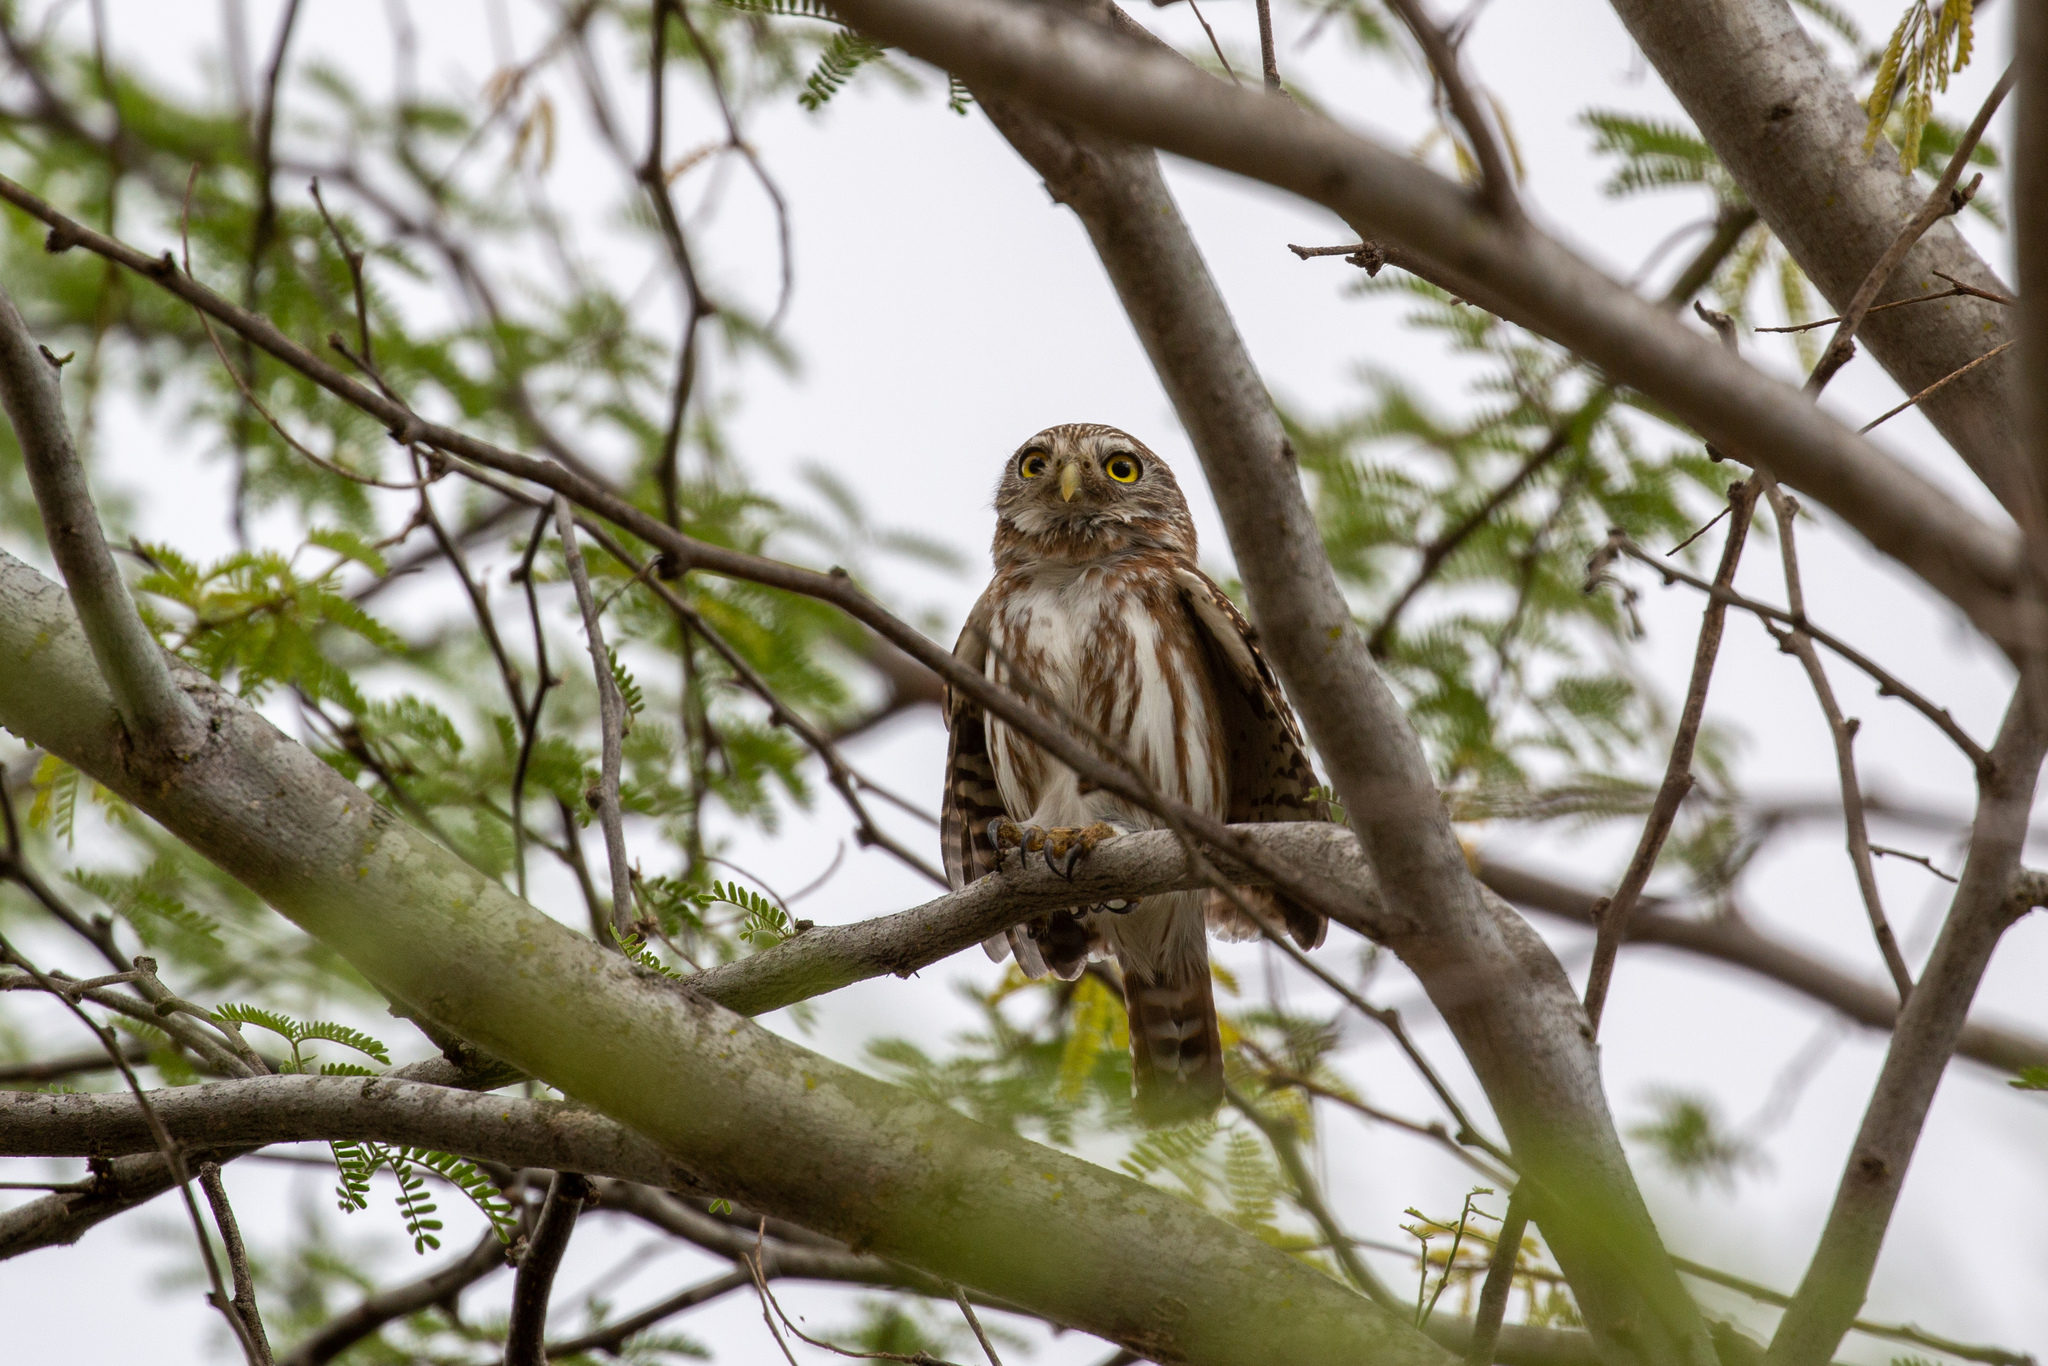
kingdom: Animalia
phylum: Chordata
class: Aves
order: Strigiformes
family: Strigidae
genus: Glaucidium
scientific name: Glaucidium brasilianum
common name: Ferruginous pygmy-owl
